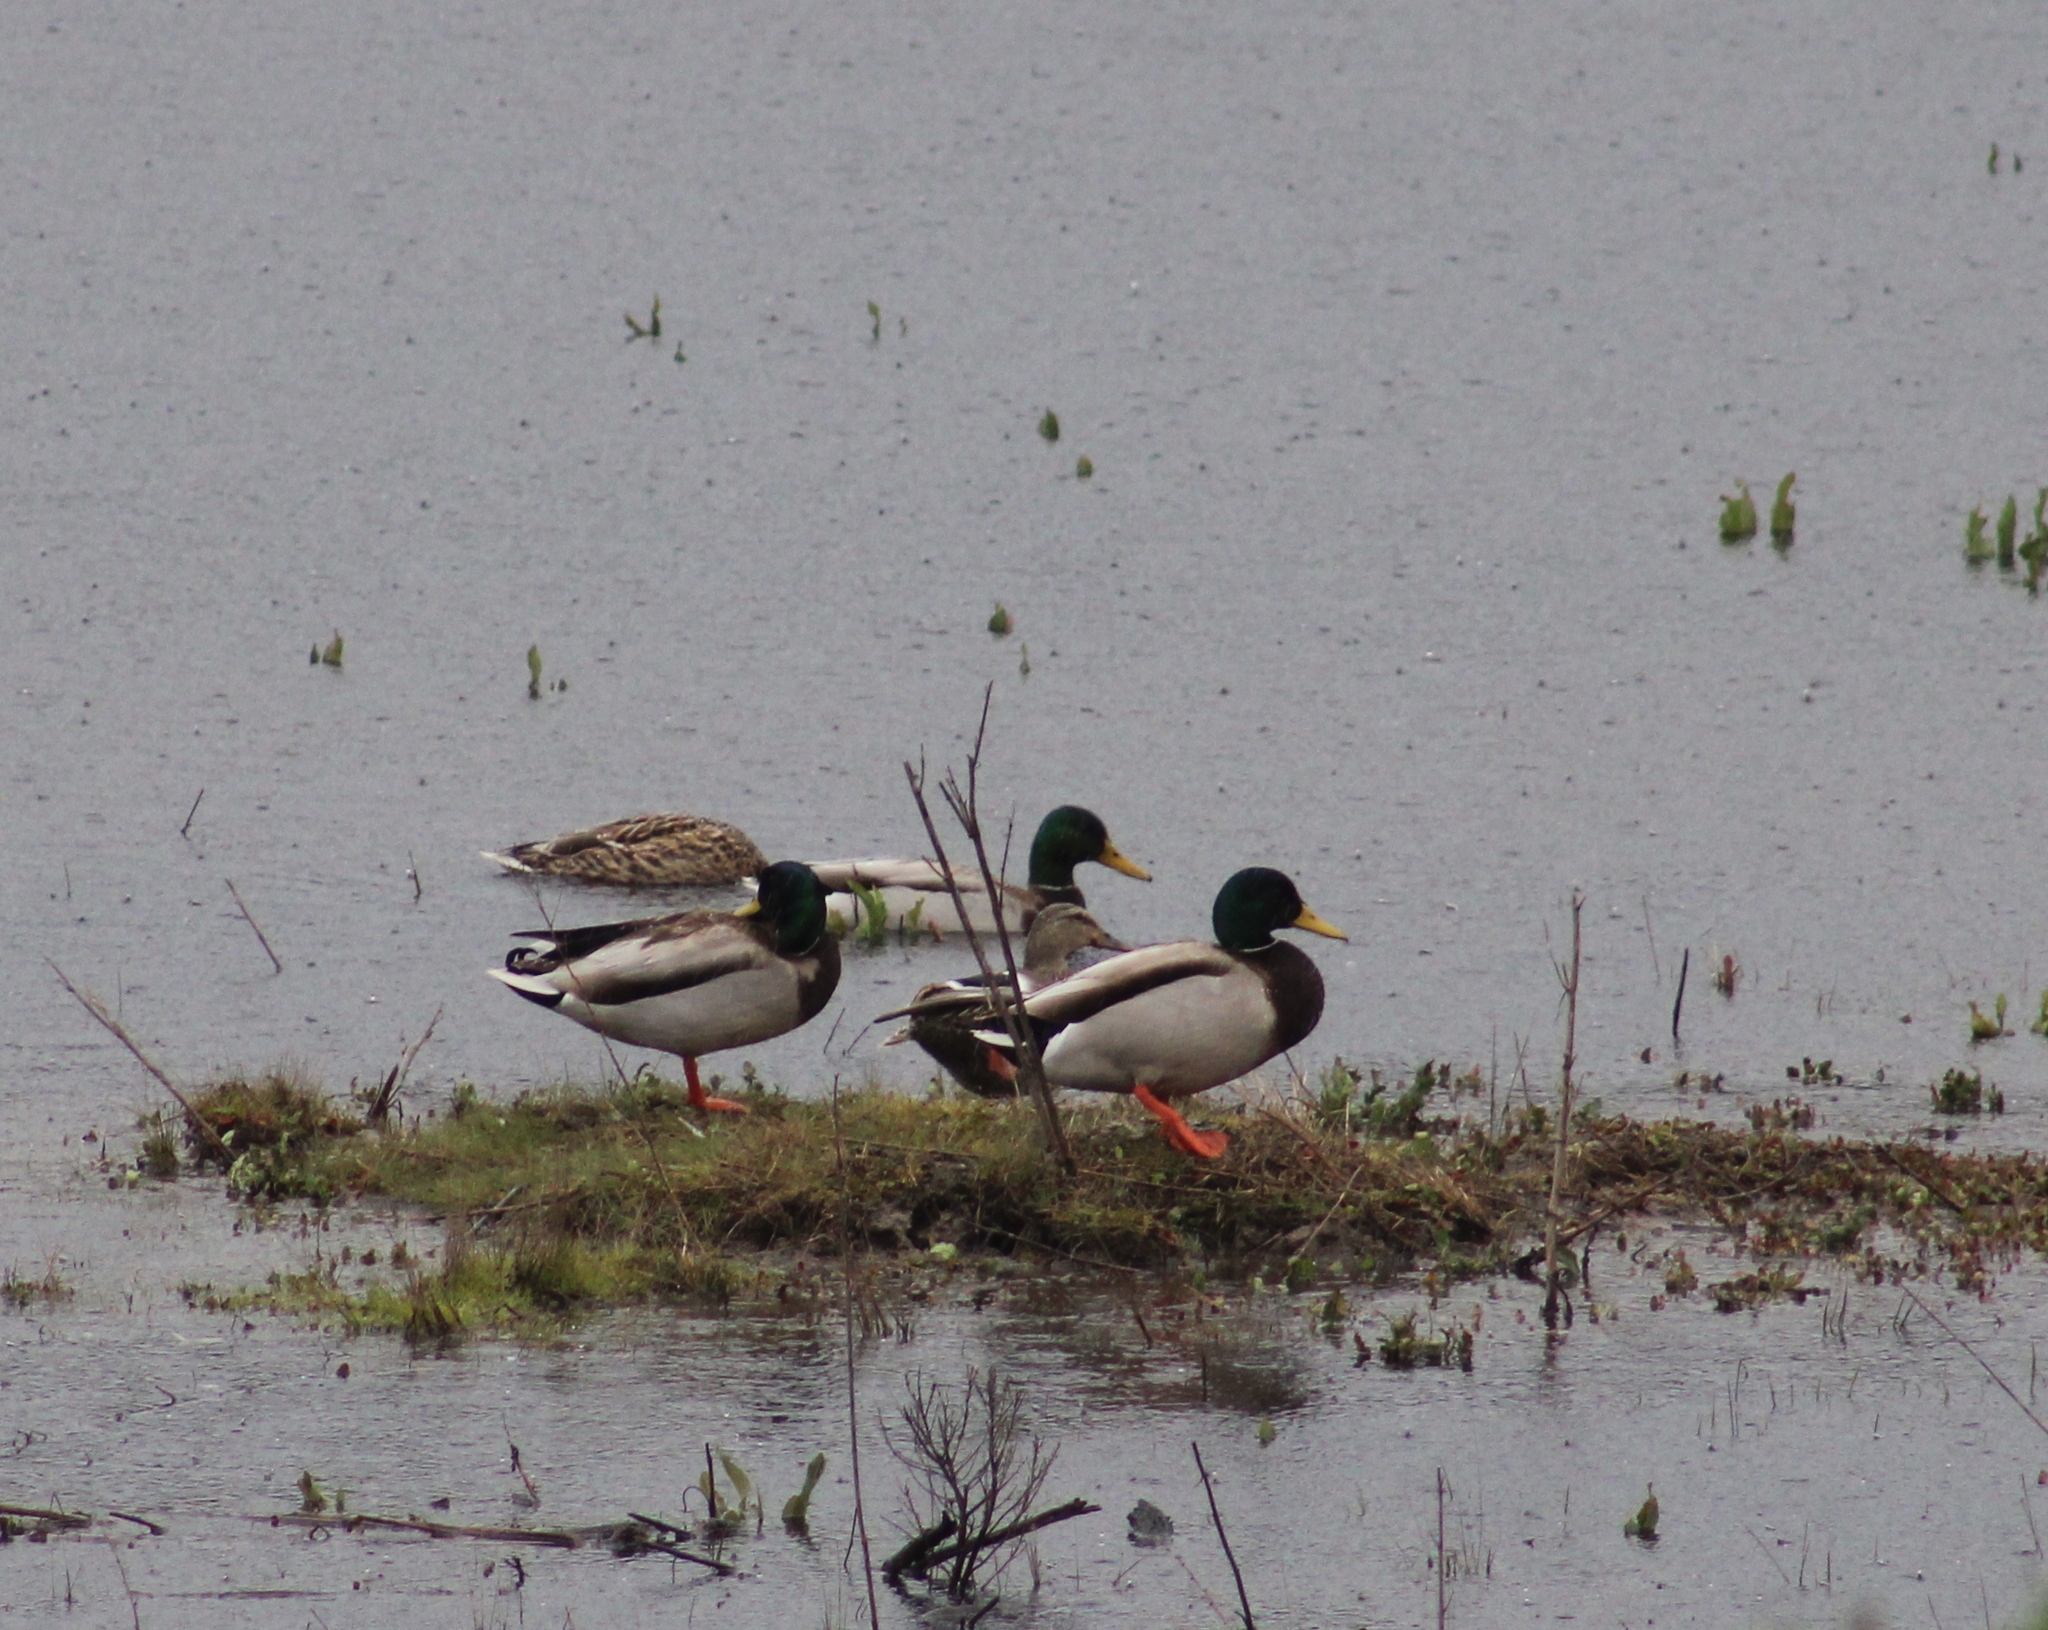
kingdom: Animalia
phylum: Chordata
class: Aves
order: Anseriformes
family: Anatidae
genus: Anas
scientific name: Anas platyrhynchos
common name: Mallard
